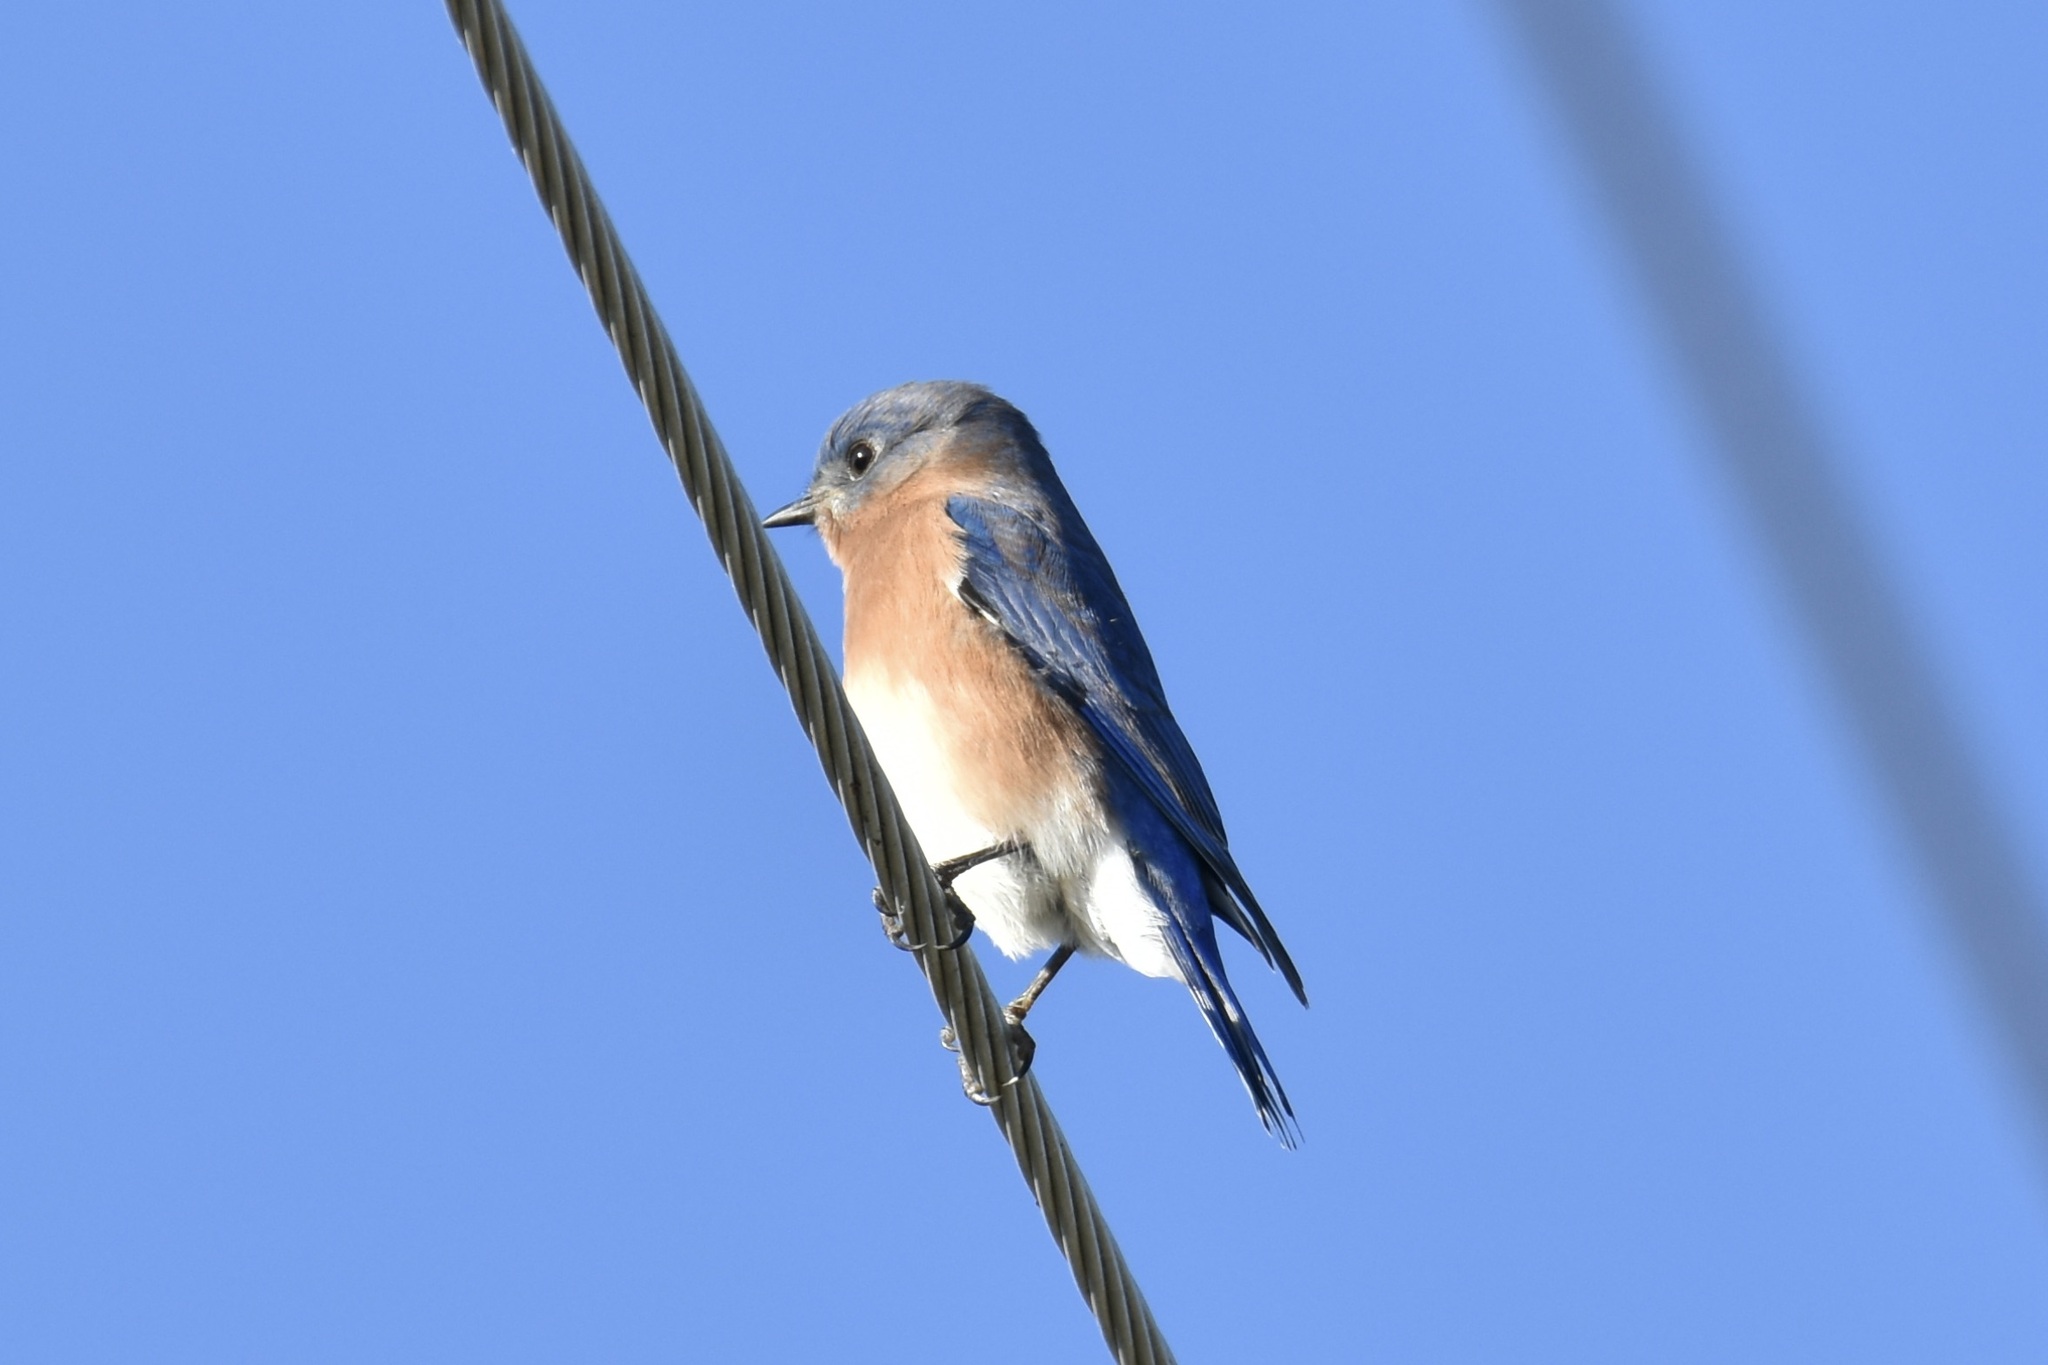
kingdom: Animalia
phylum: Chordata
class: Aves
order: Passeriformes
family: Turdidae
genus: Sialia
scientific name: Sialia sialis
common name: Eastern bluebird
